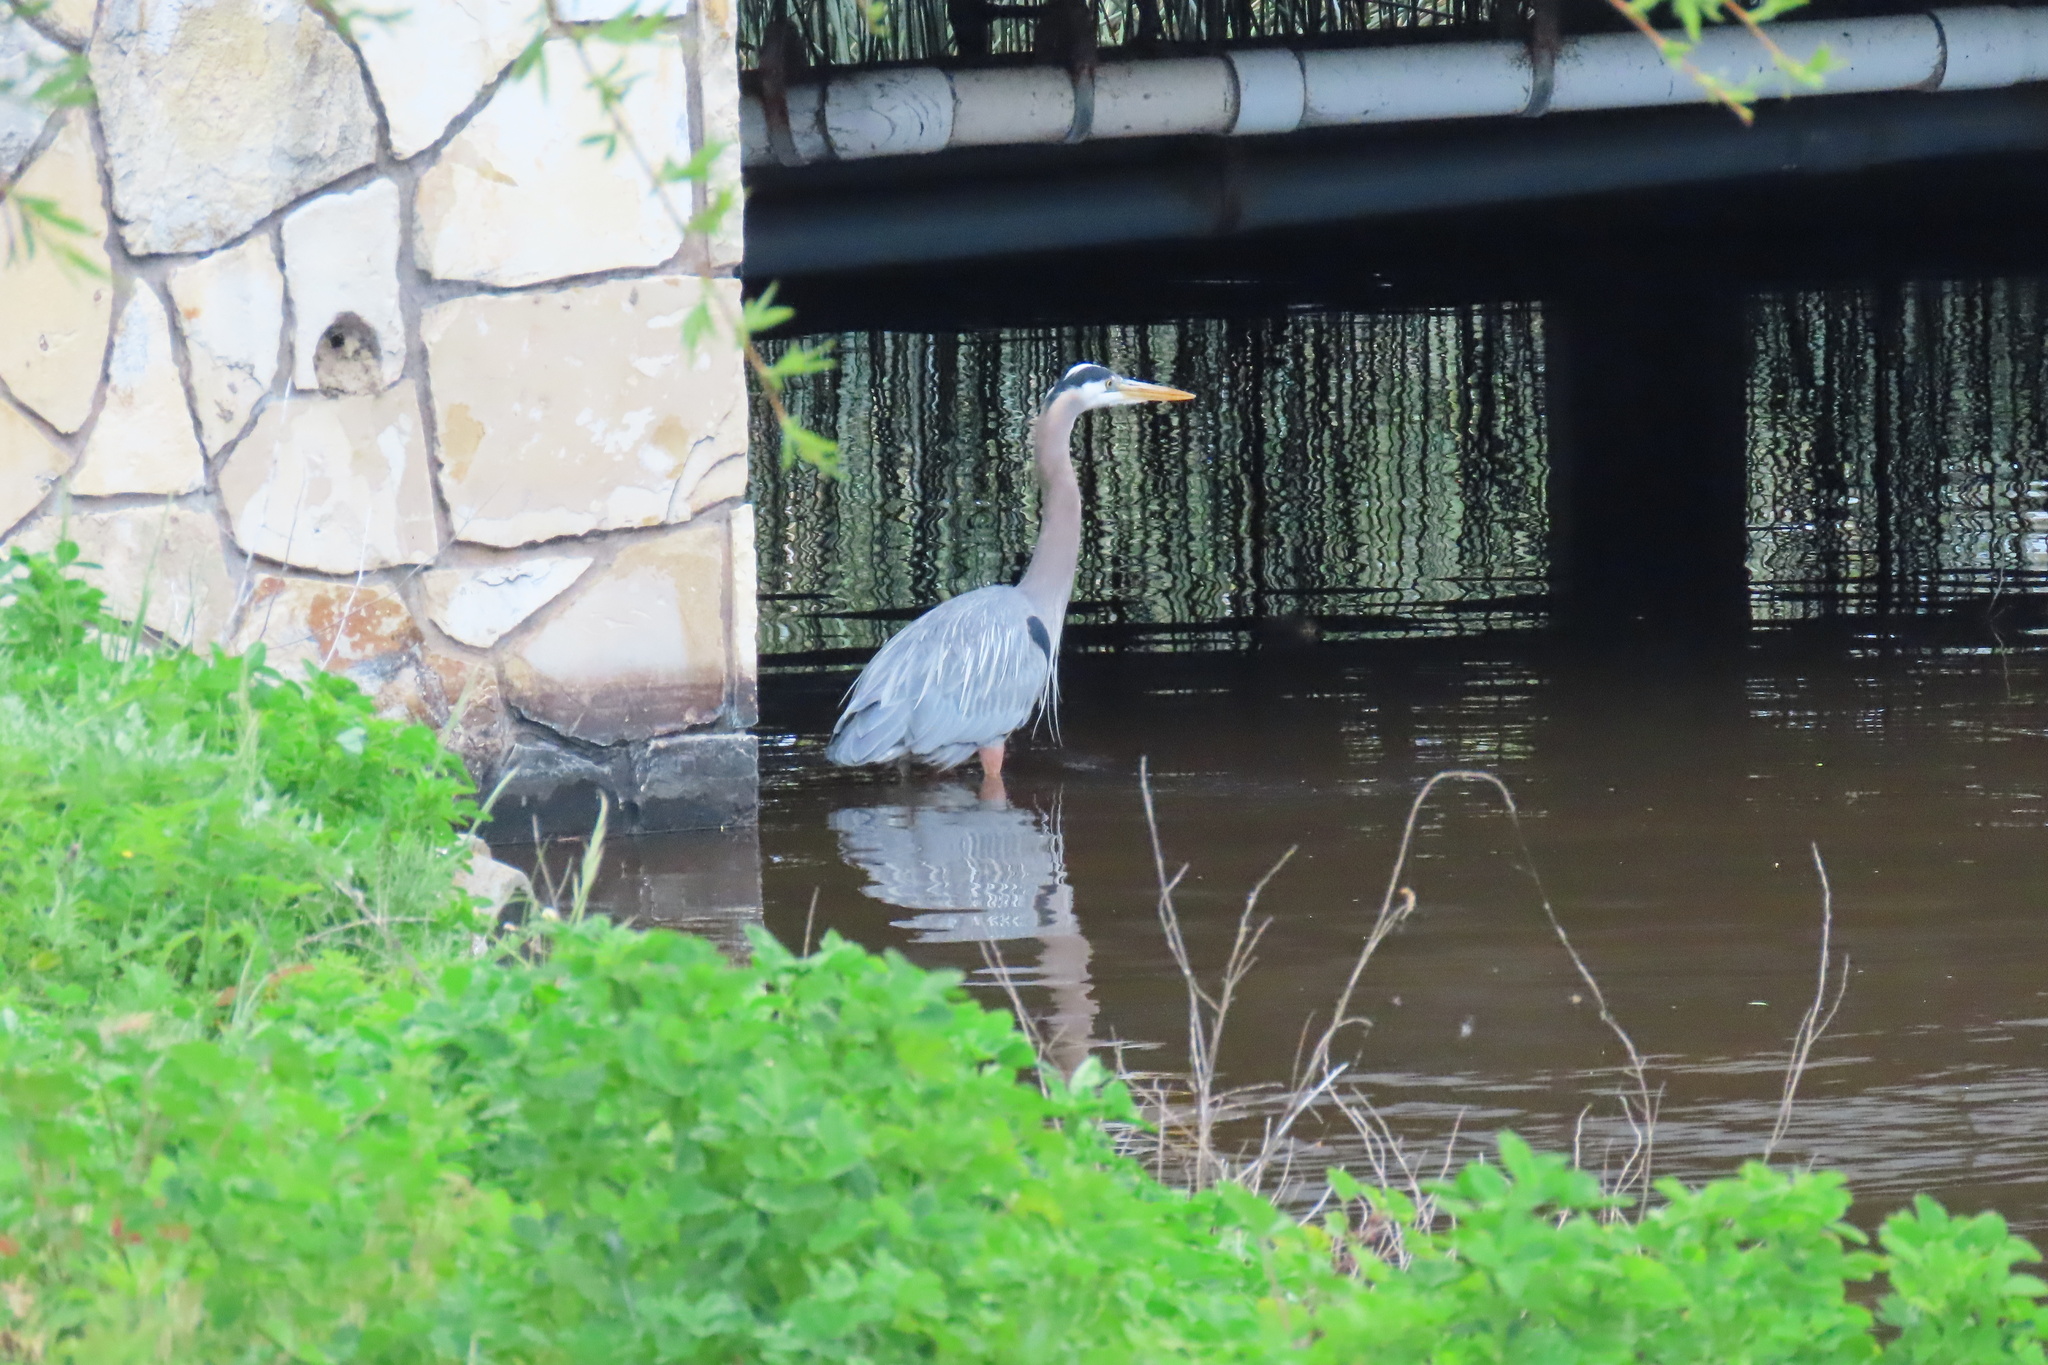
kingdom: Animalia
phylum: Chordata
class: Aves
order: Pelecaniformes
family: Ardeidae
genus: Ardea
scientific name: Ardea herodias
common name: Great blue heron
